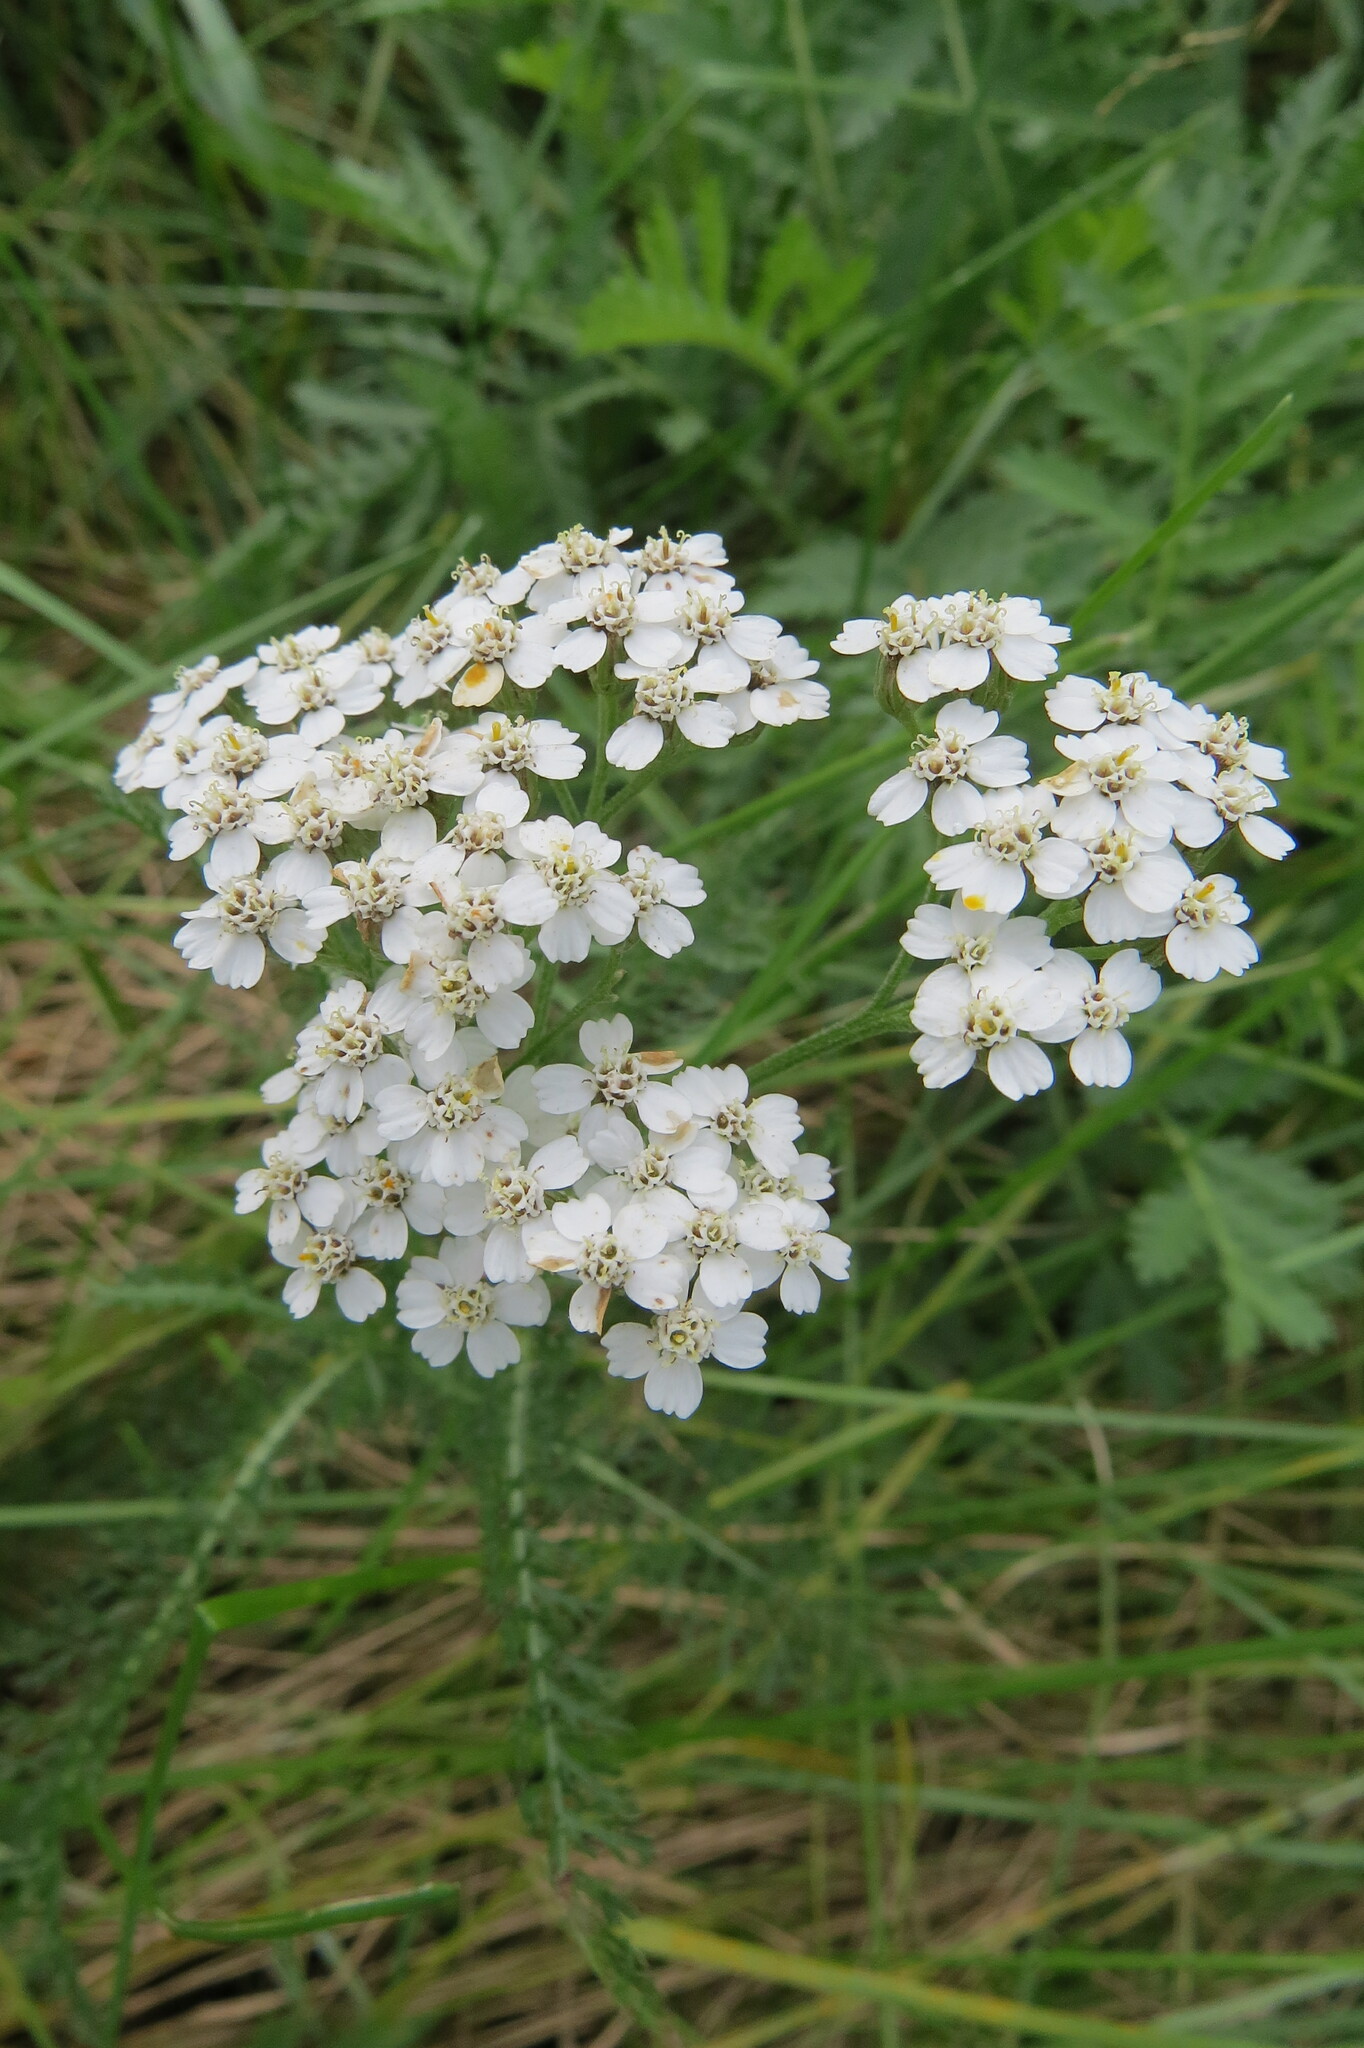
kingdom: Plantae
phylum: Tracheophyta
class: Magnoliopsida
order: Asterales
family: Asteraceae
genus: Achillea
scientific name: Achillea millefolium
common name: Yarrow
